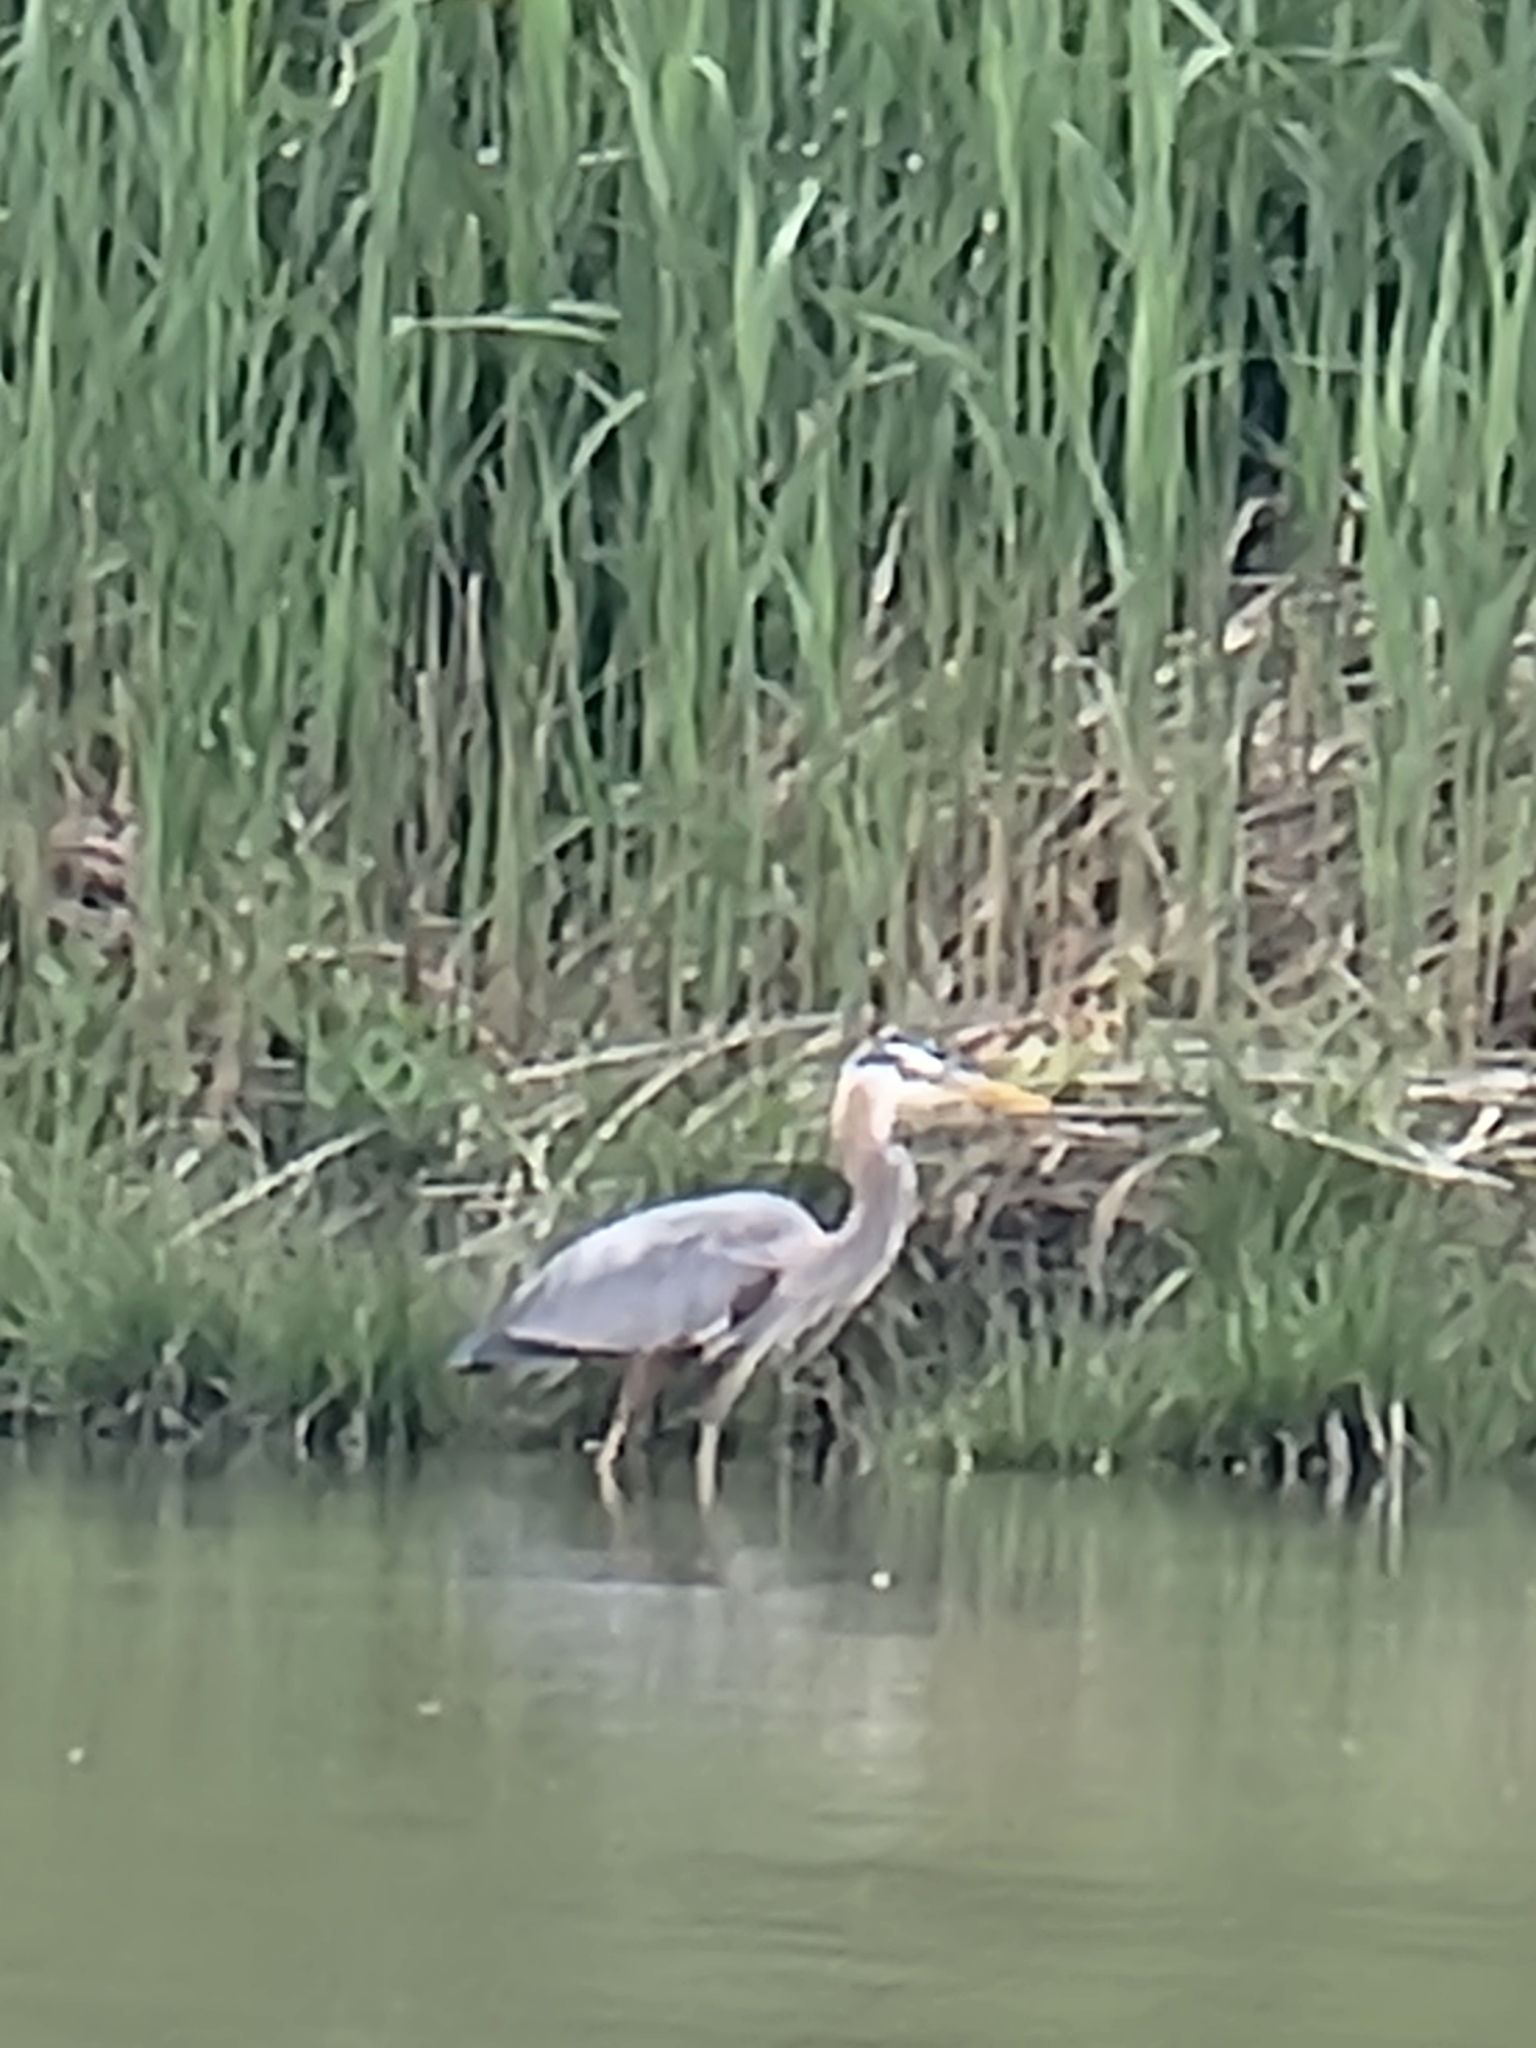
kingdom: Animalia
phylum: Chordata
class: Aves
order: Pelecaniformes
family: Ardeidae
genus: Ardea
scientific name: Ardea herodias
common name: Great blue heron
